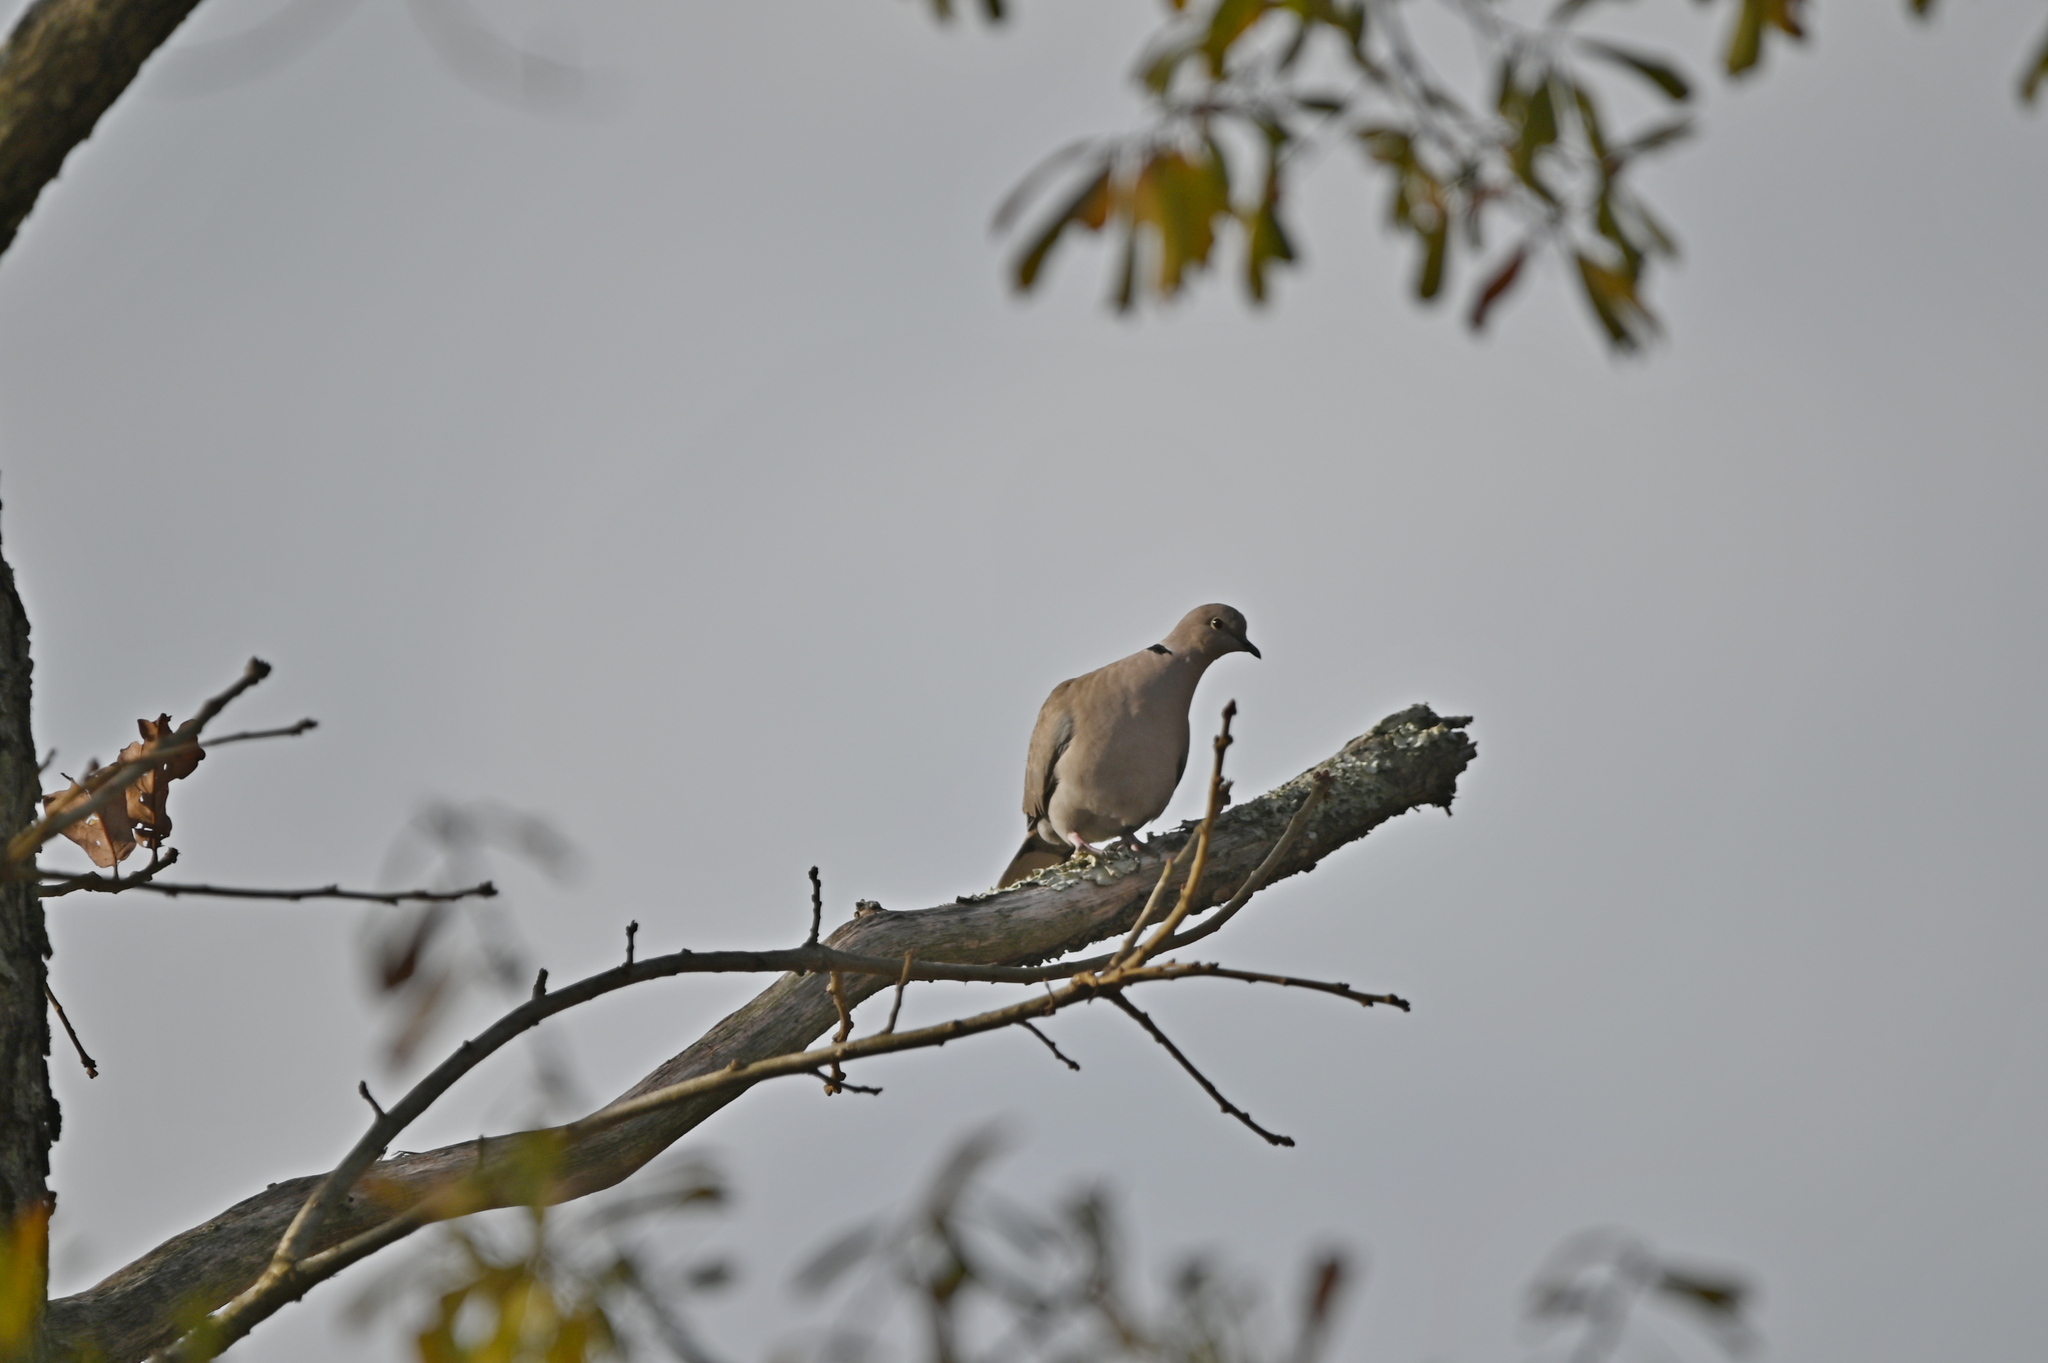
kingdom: Animalia
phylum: Chordata
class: Aves
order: Columbiformes
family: Columbidae
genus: Streptopelia
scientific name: Streptopelia decaocto
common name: Eurasian collared dove
